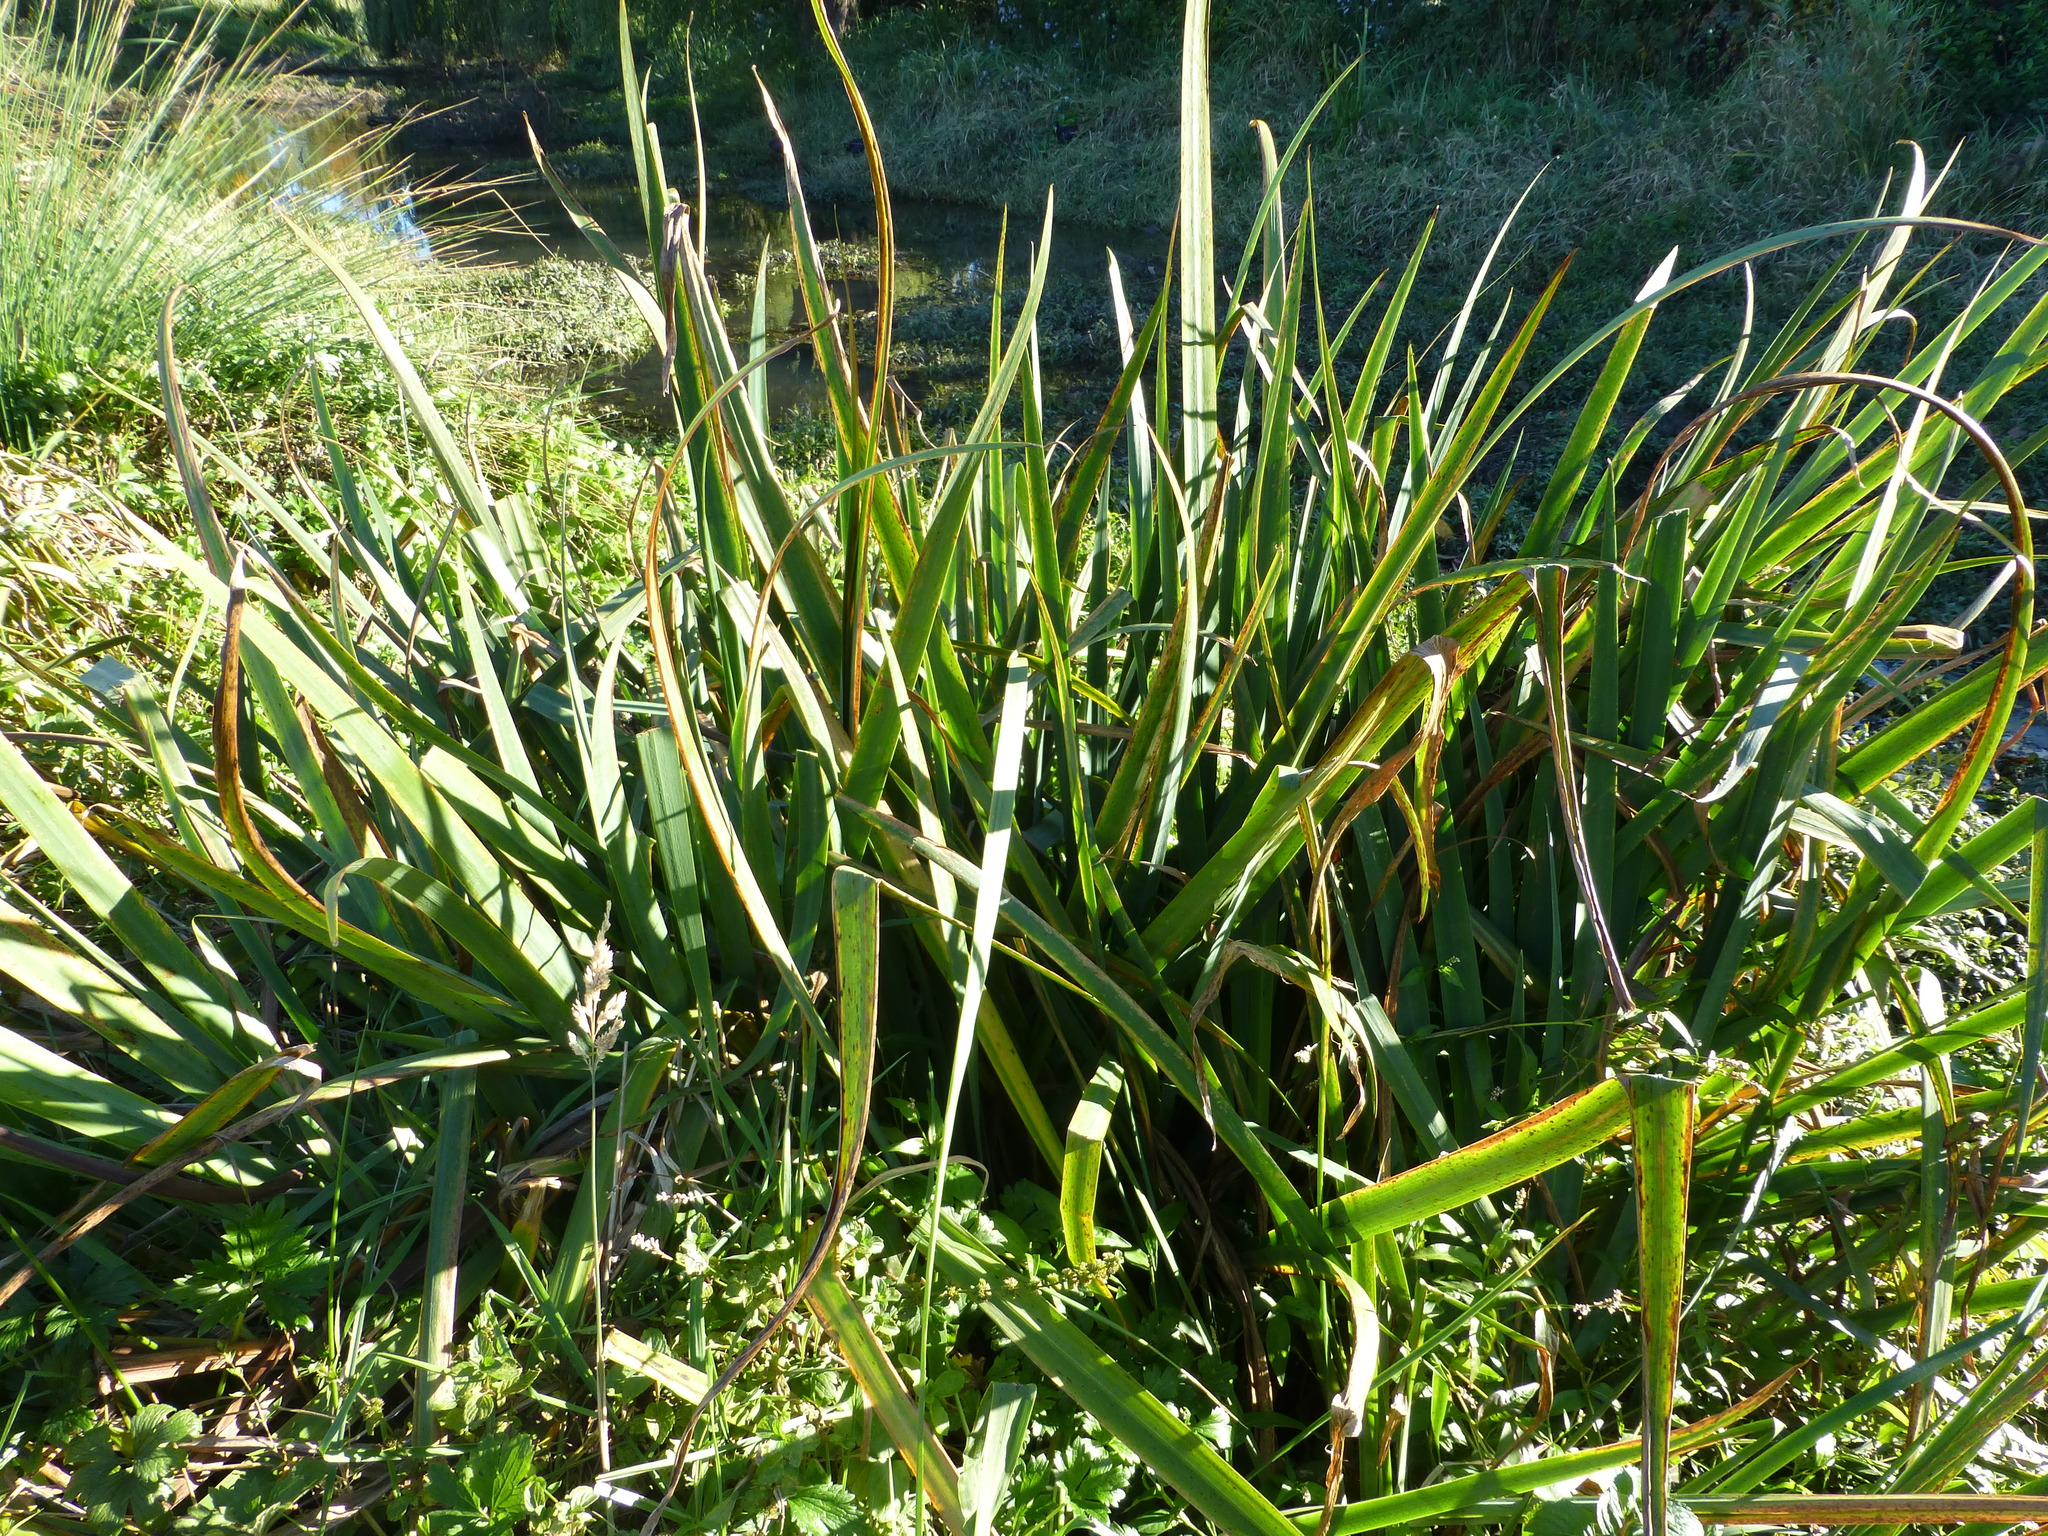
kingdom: Plantae
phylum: Tracheophyta
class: Liliopsida
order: Asparagales
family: Iridaceae
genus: Iris
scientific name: Iris pseudacorus
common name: Yellow flag
